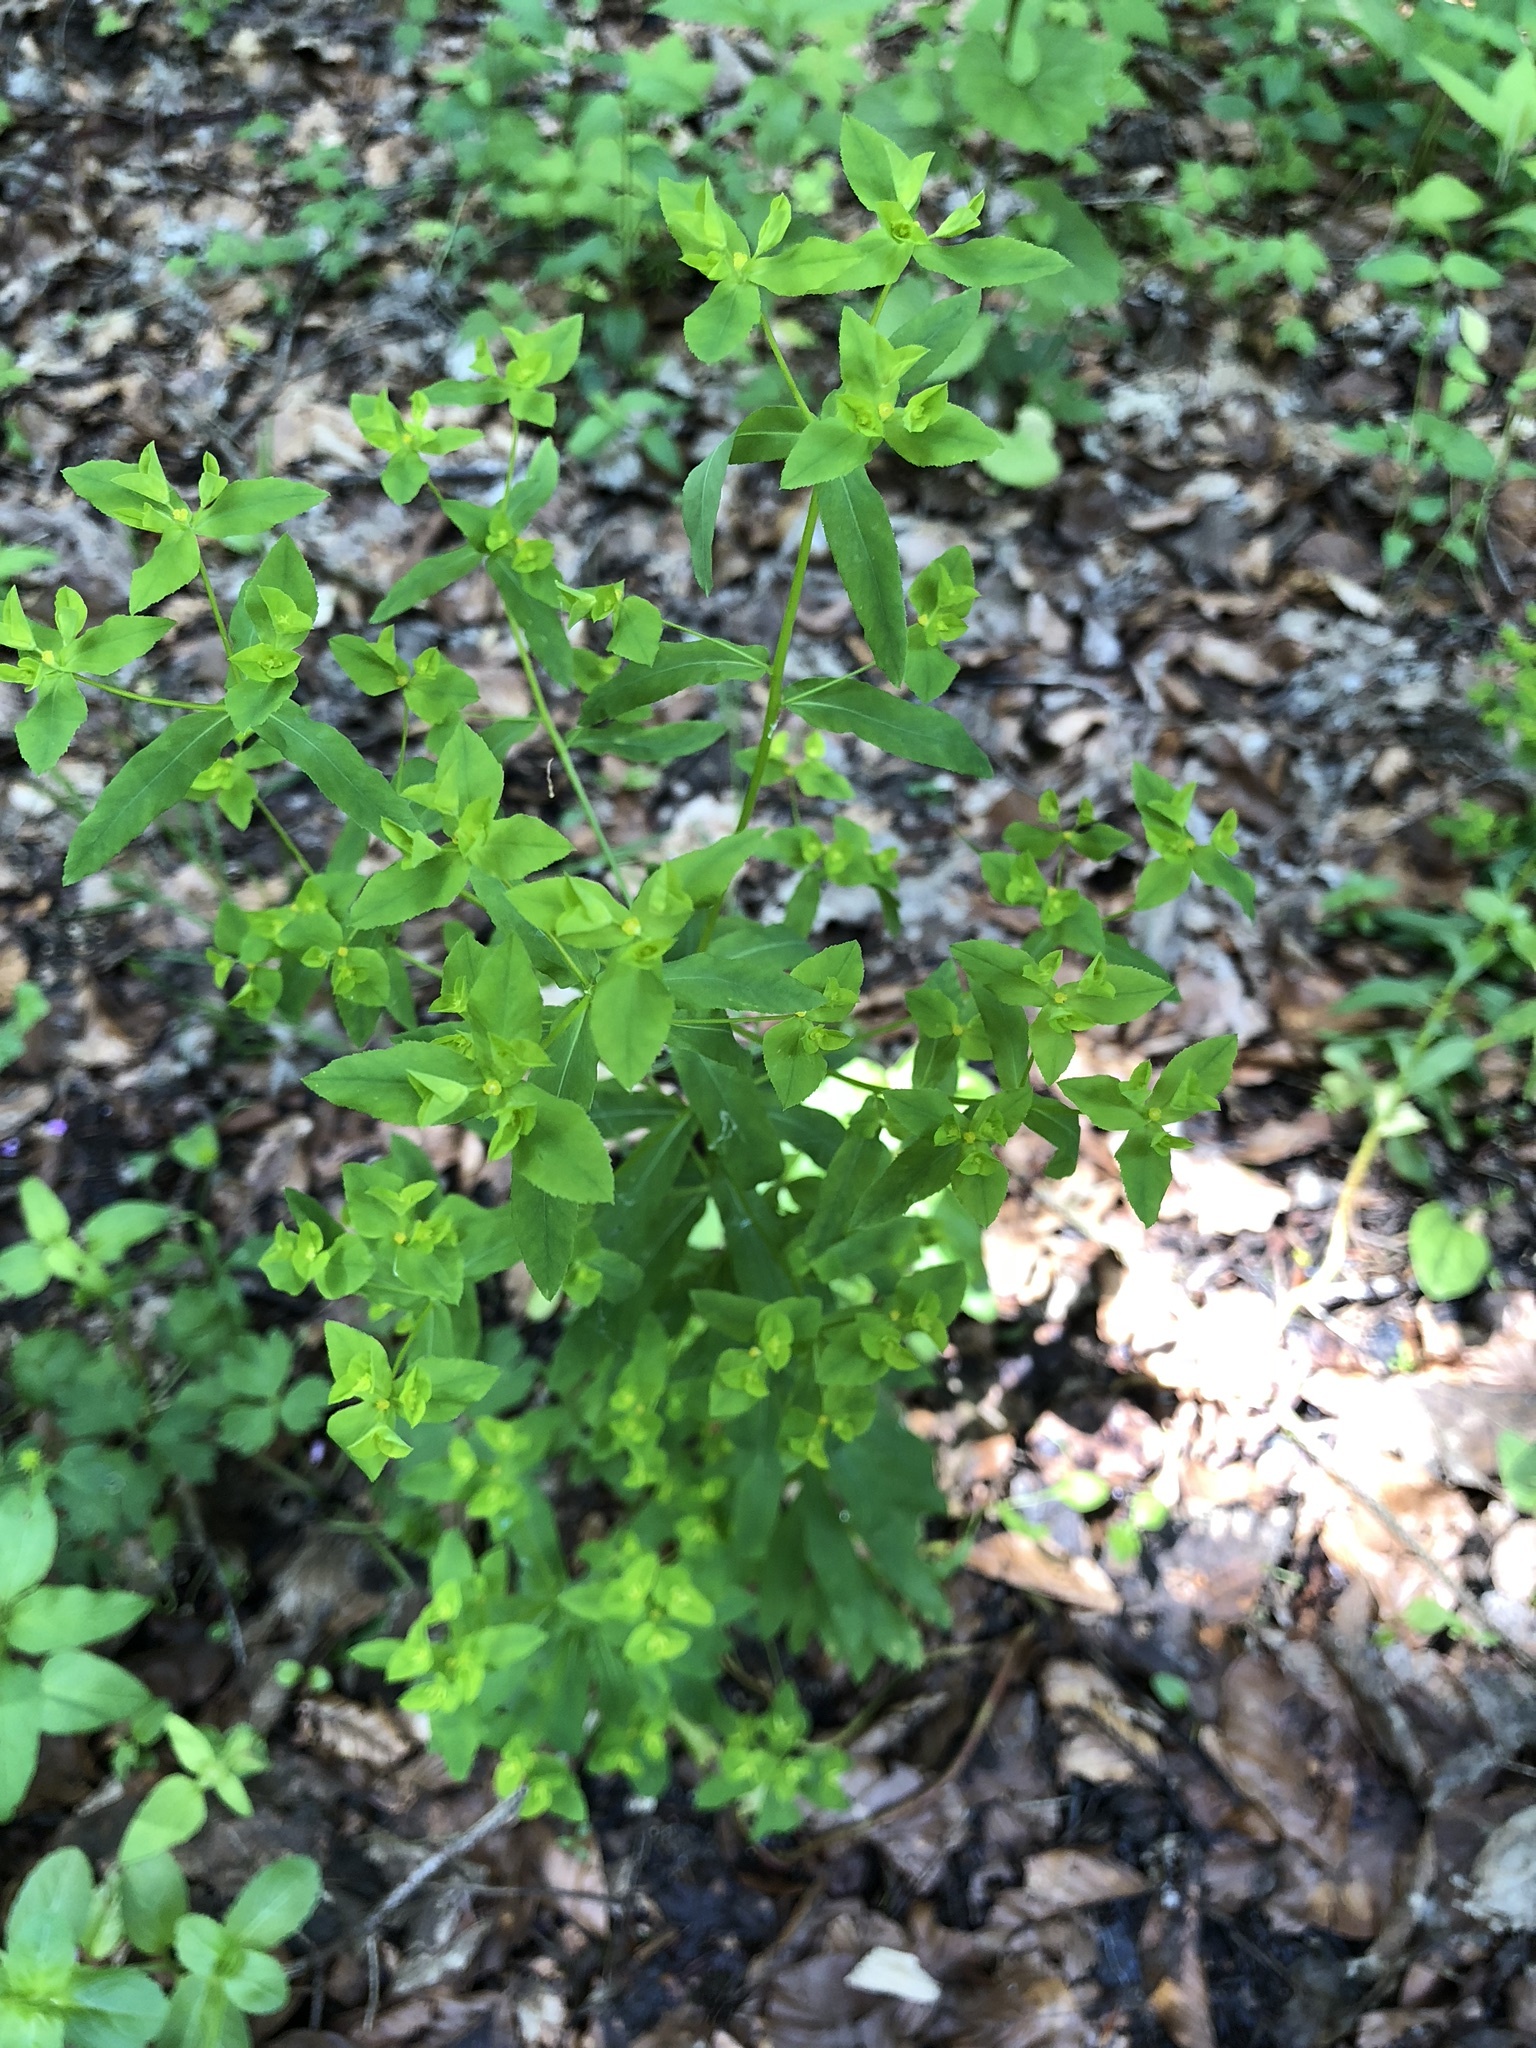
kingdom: Plantae
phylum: Tracheophyta
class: Magnoliopsida
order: Malpighiales
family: Euphorbiaceae
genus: Euphorbia
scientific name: Euphorbia dulcis
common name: Sweet spurge
